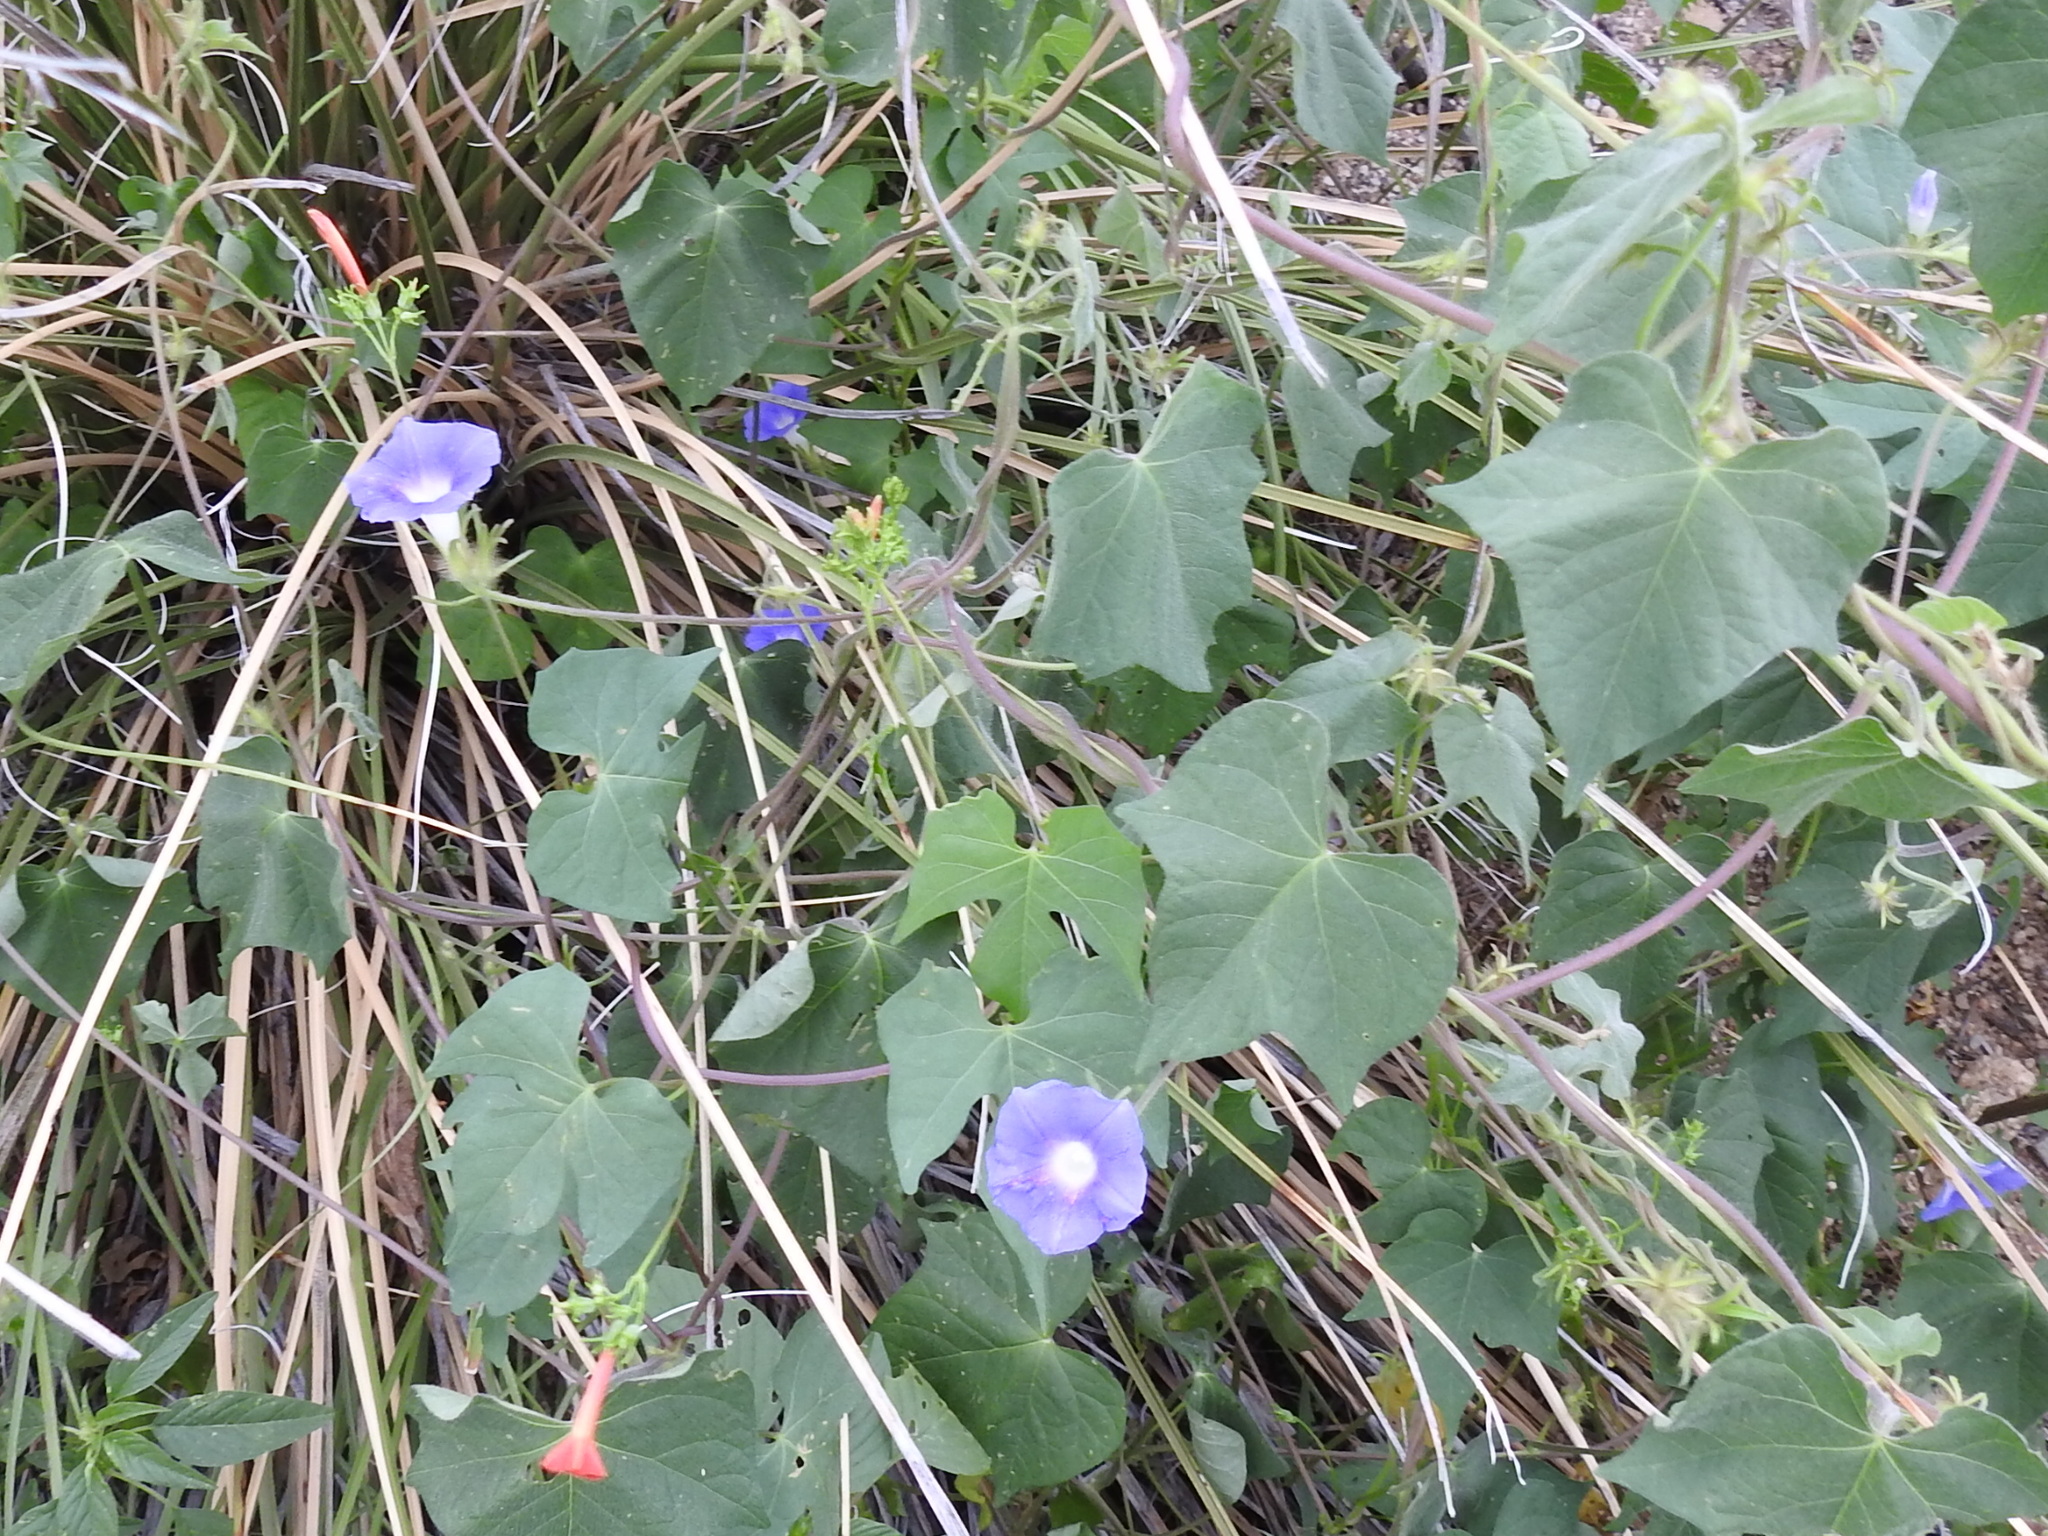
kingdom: Plantae
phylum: Tracheophyta
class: Magnoliopsida
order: Solanales
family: Convolvulaceae
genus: Ipomoea
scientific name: Ipomoea hederacea
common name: Ivy-leaved morning-glory
